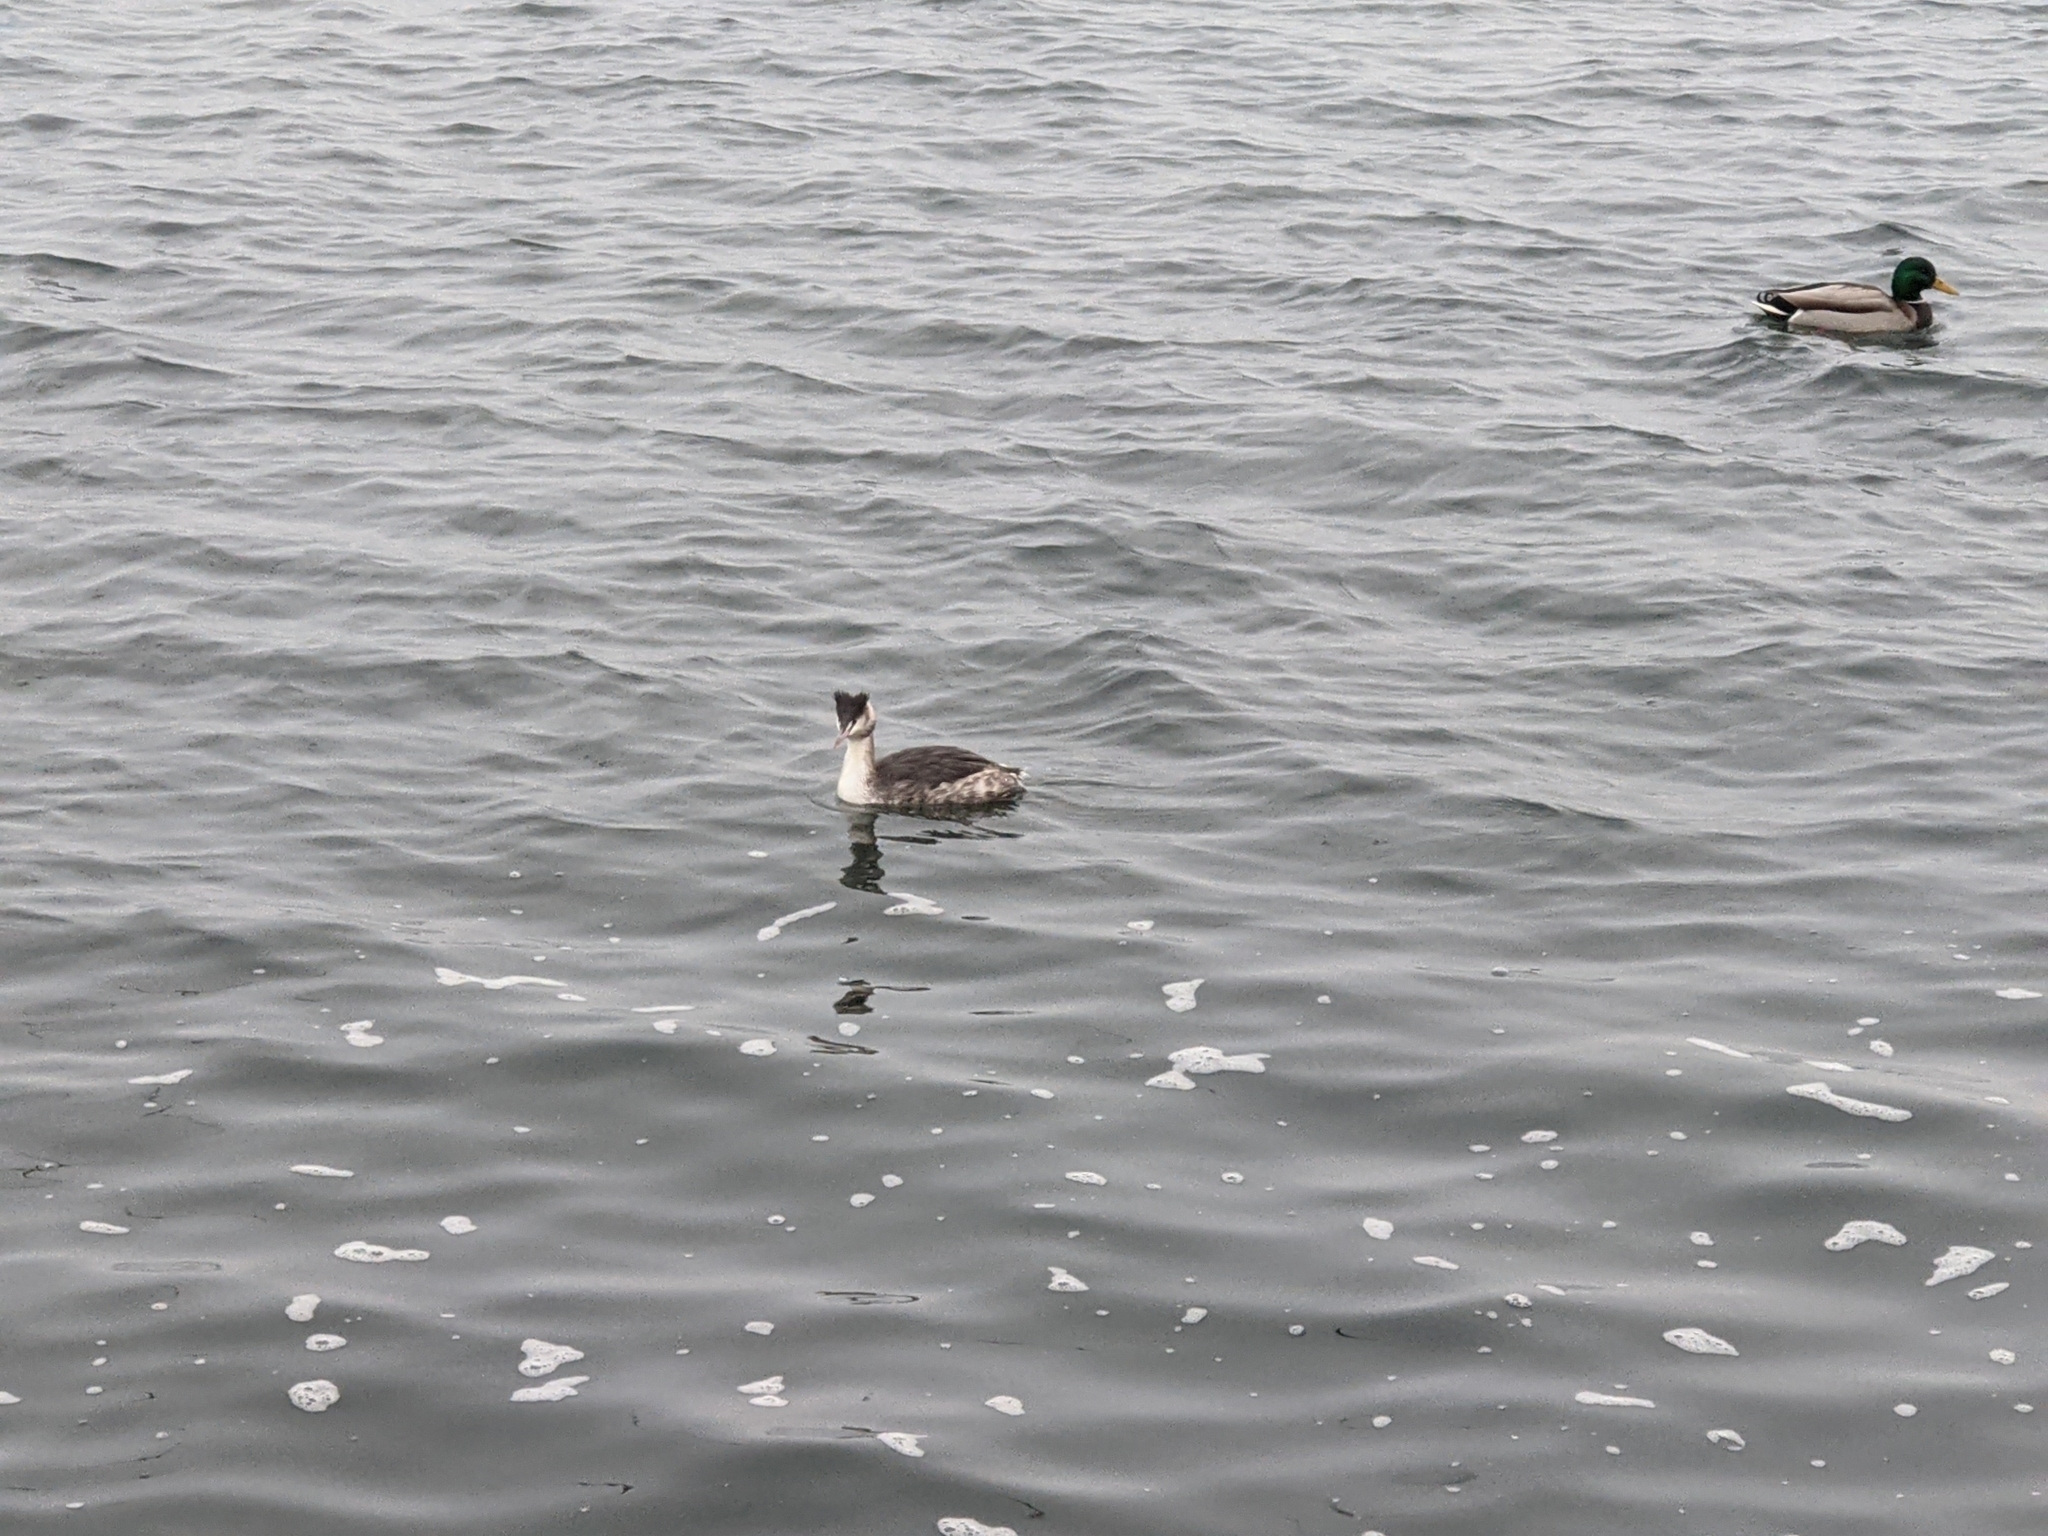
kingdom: Animalia
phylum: Chordata
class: Aves
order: Podicipediformes
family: Podicipedidae
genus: Podiceps
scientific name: Podiceps cristatus
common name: Great crested grebe
